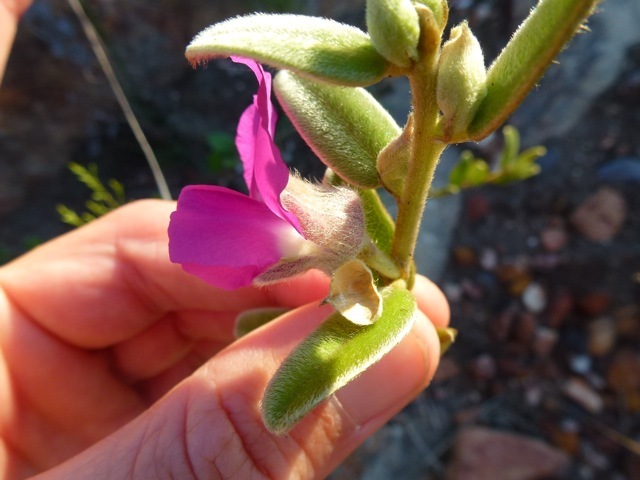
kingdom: Plantae
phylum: Tracheophyta
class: Magnoliopsida
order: Fabales
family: Fabaceae
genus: Podalyria
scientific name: Podalyria burchellii
